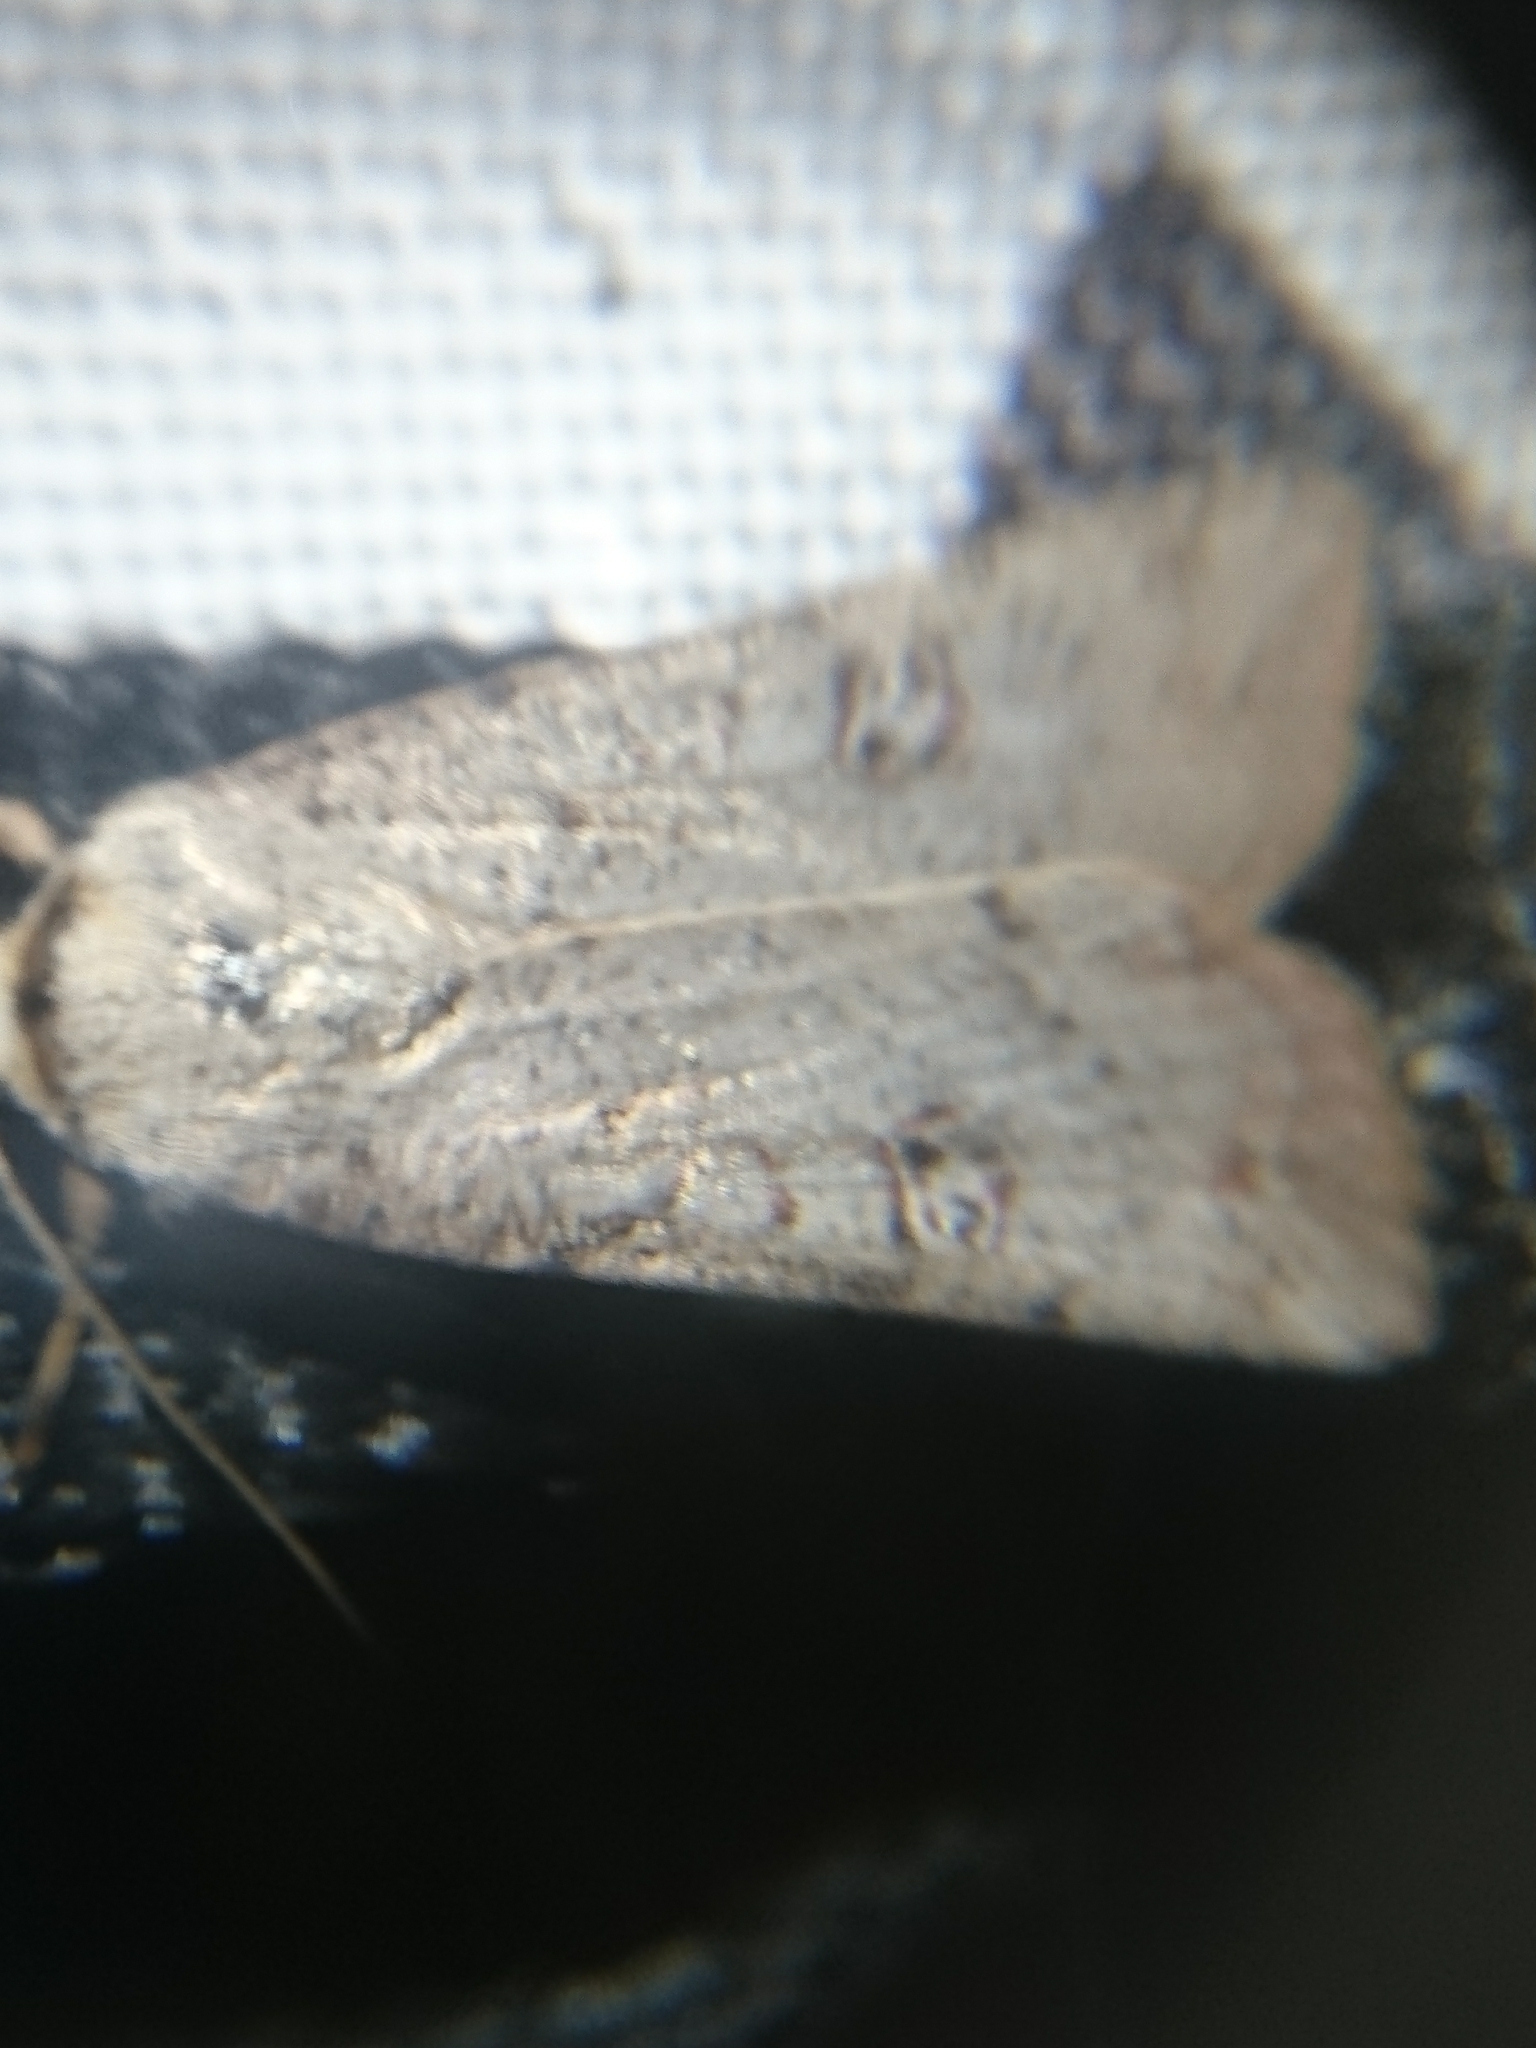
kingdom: Animalia
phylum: Arthropoda
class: Insecta
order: Lepidoptera
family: Noctuidae
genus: Anicla
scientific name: Anicla infecta
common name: Green cutworm
